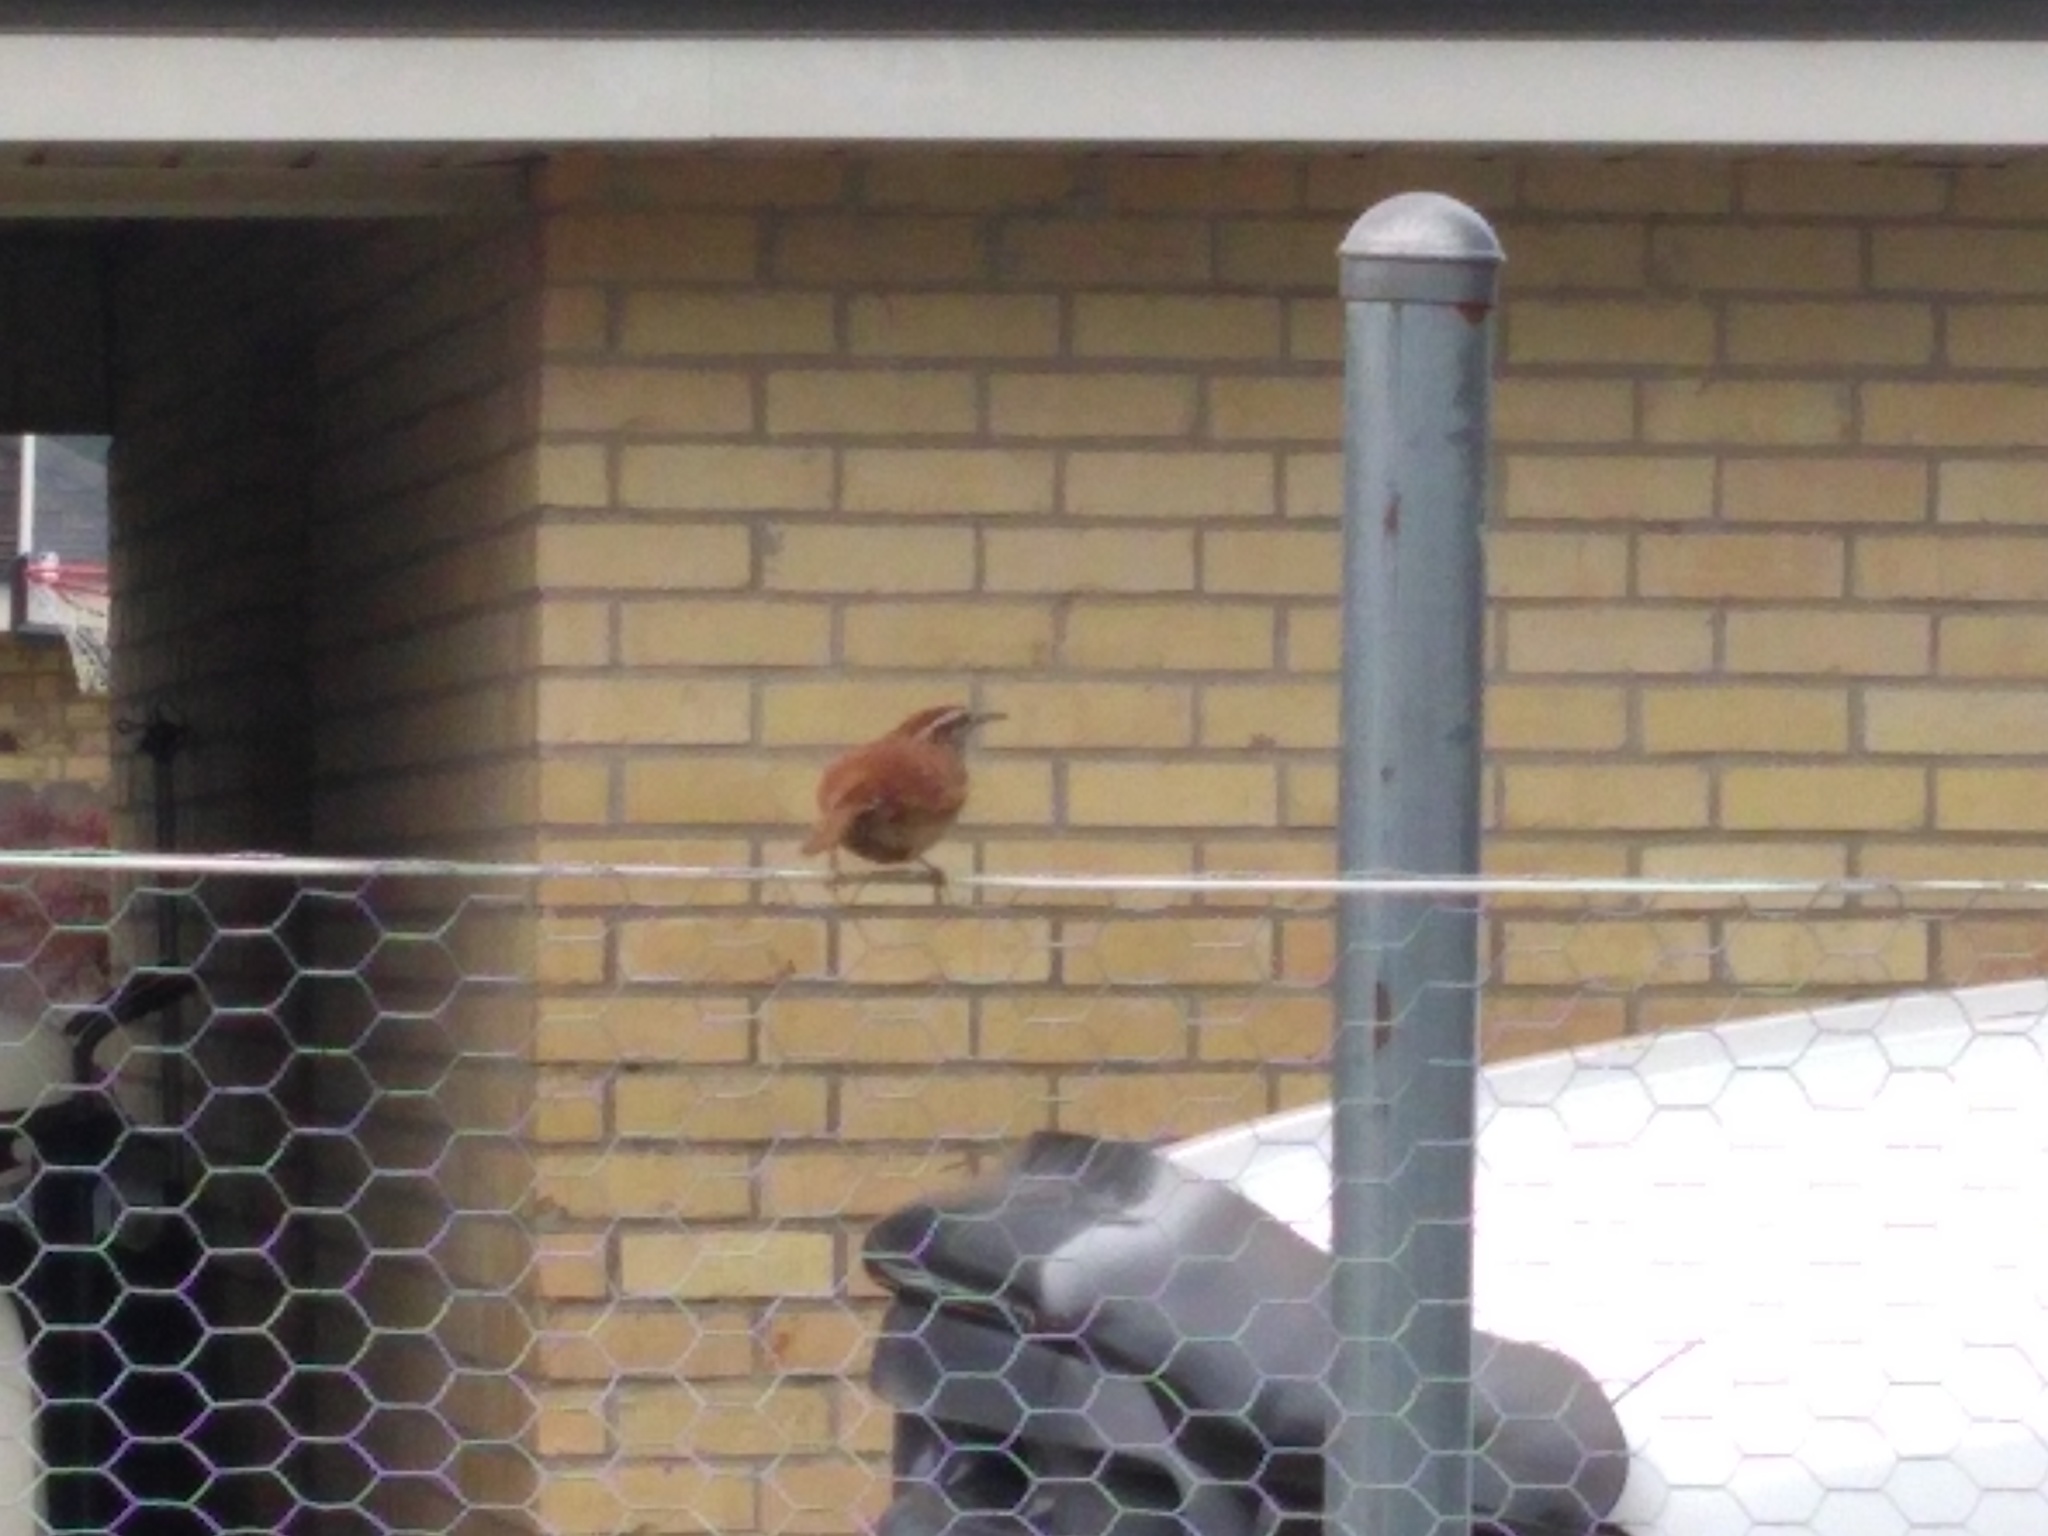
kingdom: Animalia
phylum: Chordata
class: Aves
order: Passeriformes
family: Troglodytidae
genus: Thryothorus
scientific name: Thryothorus ludovicianus
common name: Carolina wren
